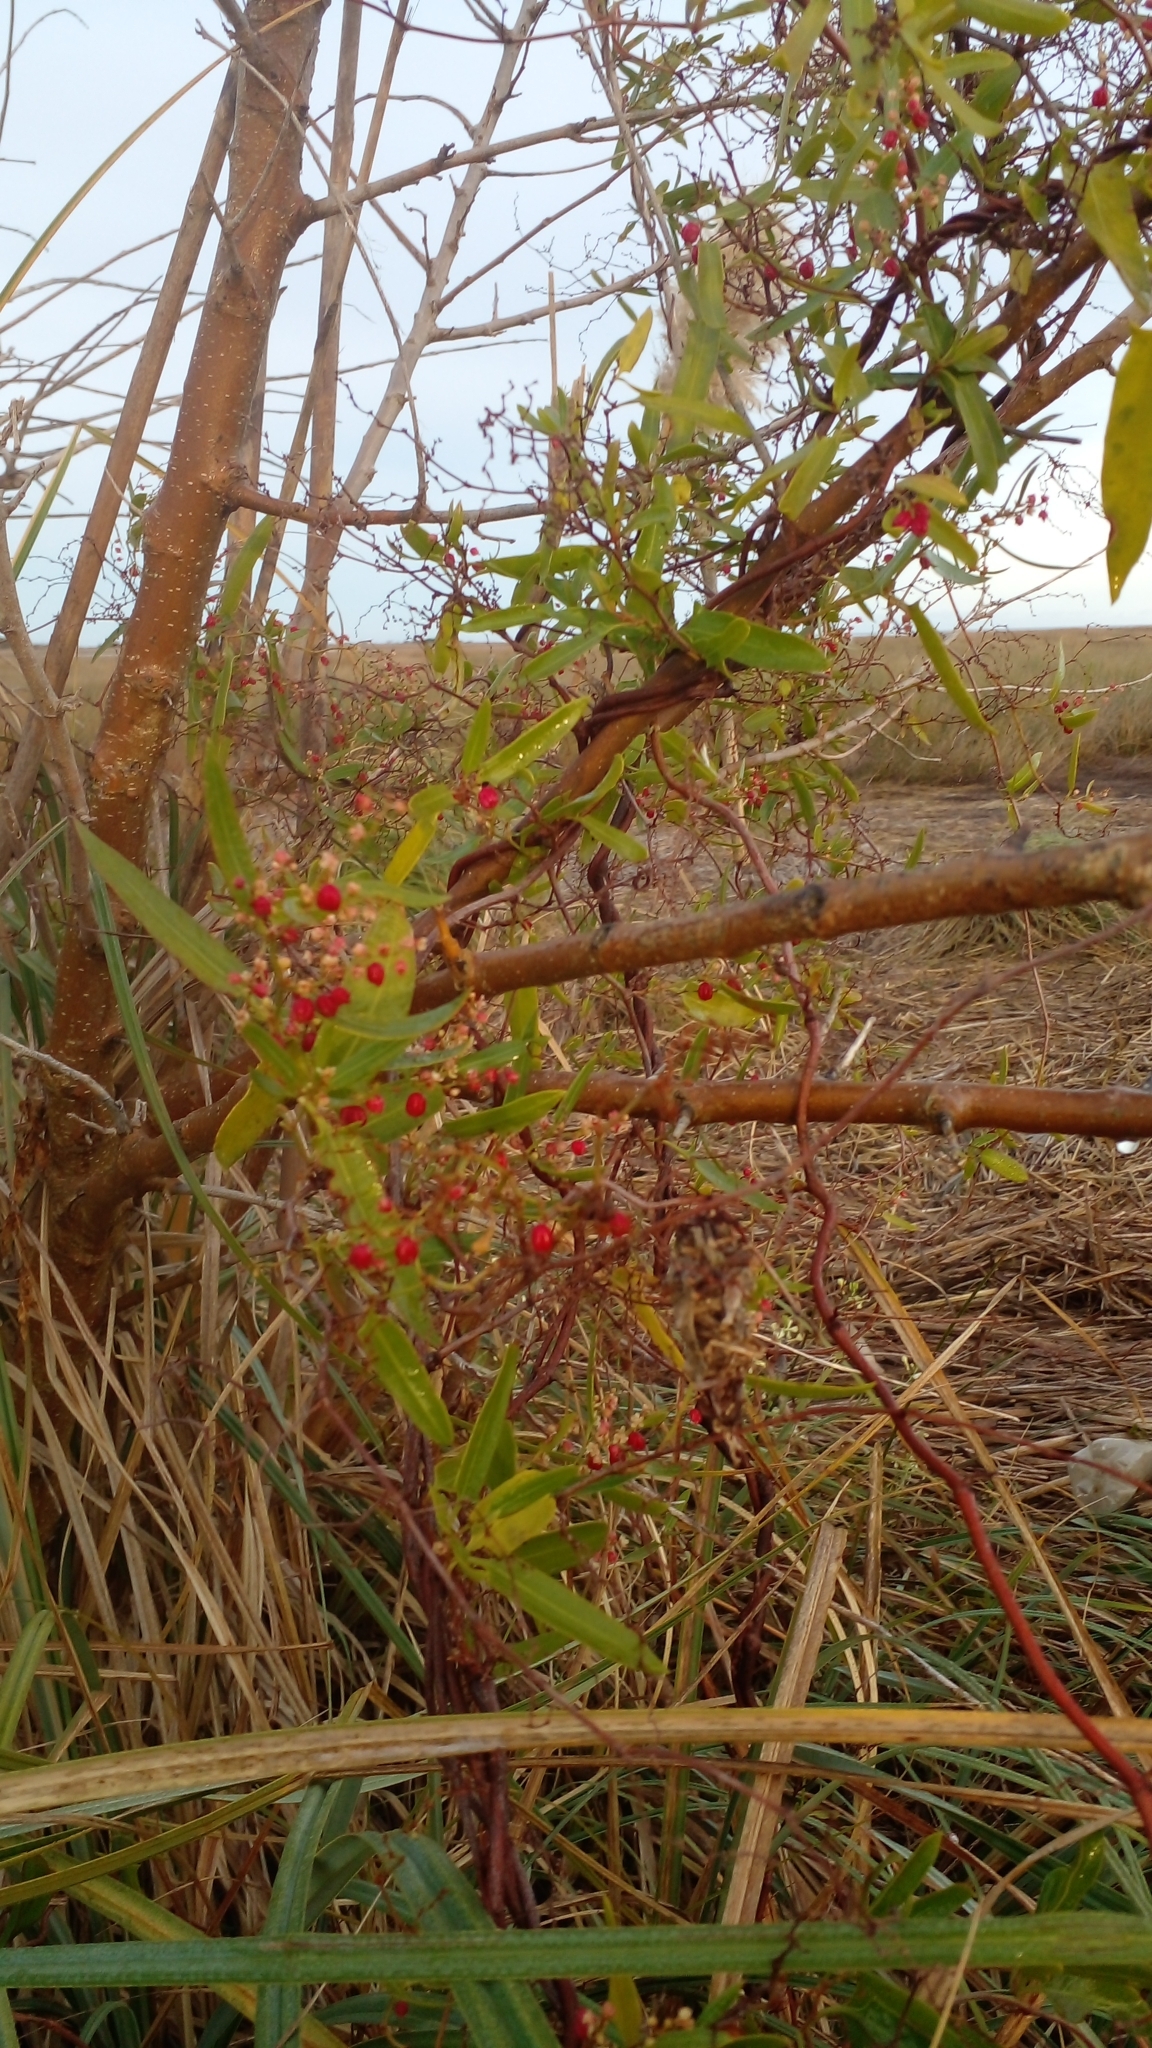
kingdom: Plantae
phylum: Tracheophyta
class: Magnoliopsida
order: Caryophyllales
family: Polygonaceae
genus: Muehlenbeckia
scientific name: Muehlenbeckia sagittifolia
